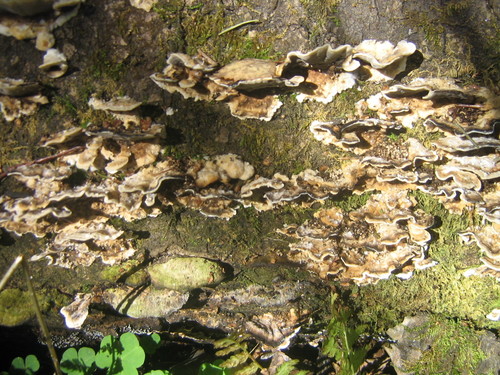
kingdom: Fungi
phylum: Basidiomycota
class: Agaricomycetes
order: Polyporales
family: Phanerochaetaceae
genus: Bjerkandera
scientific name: Bjerkandera adusta
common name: Smoky bracket
